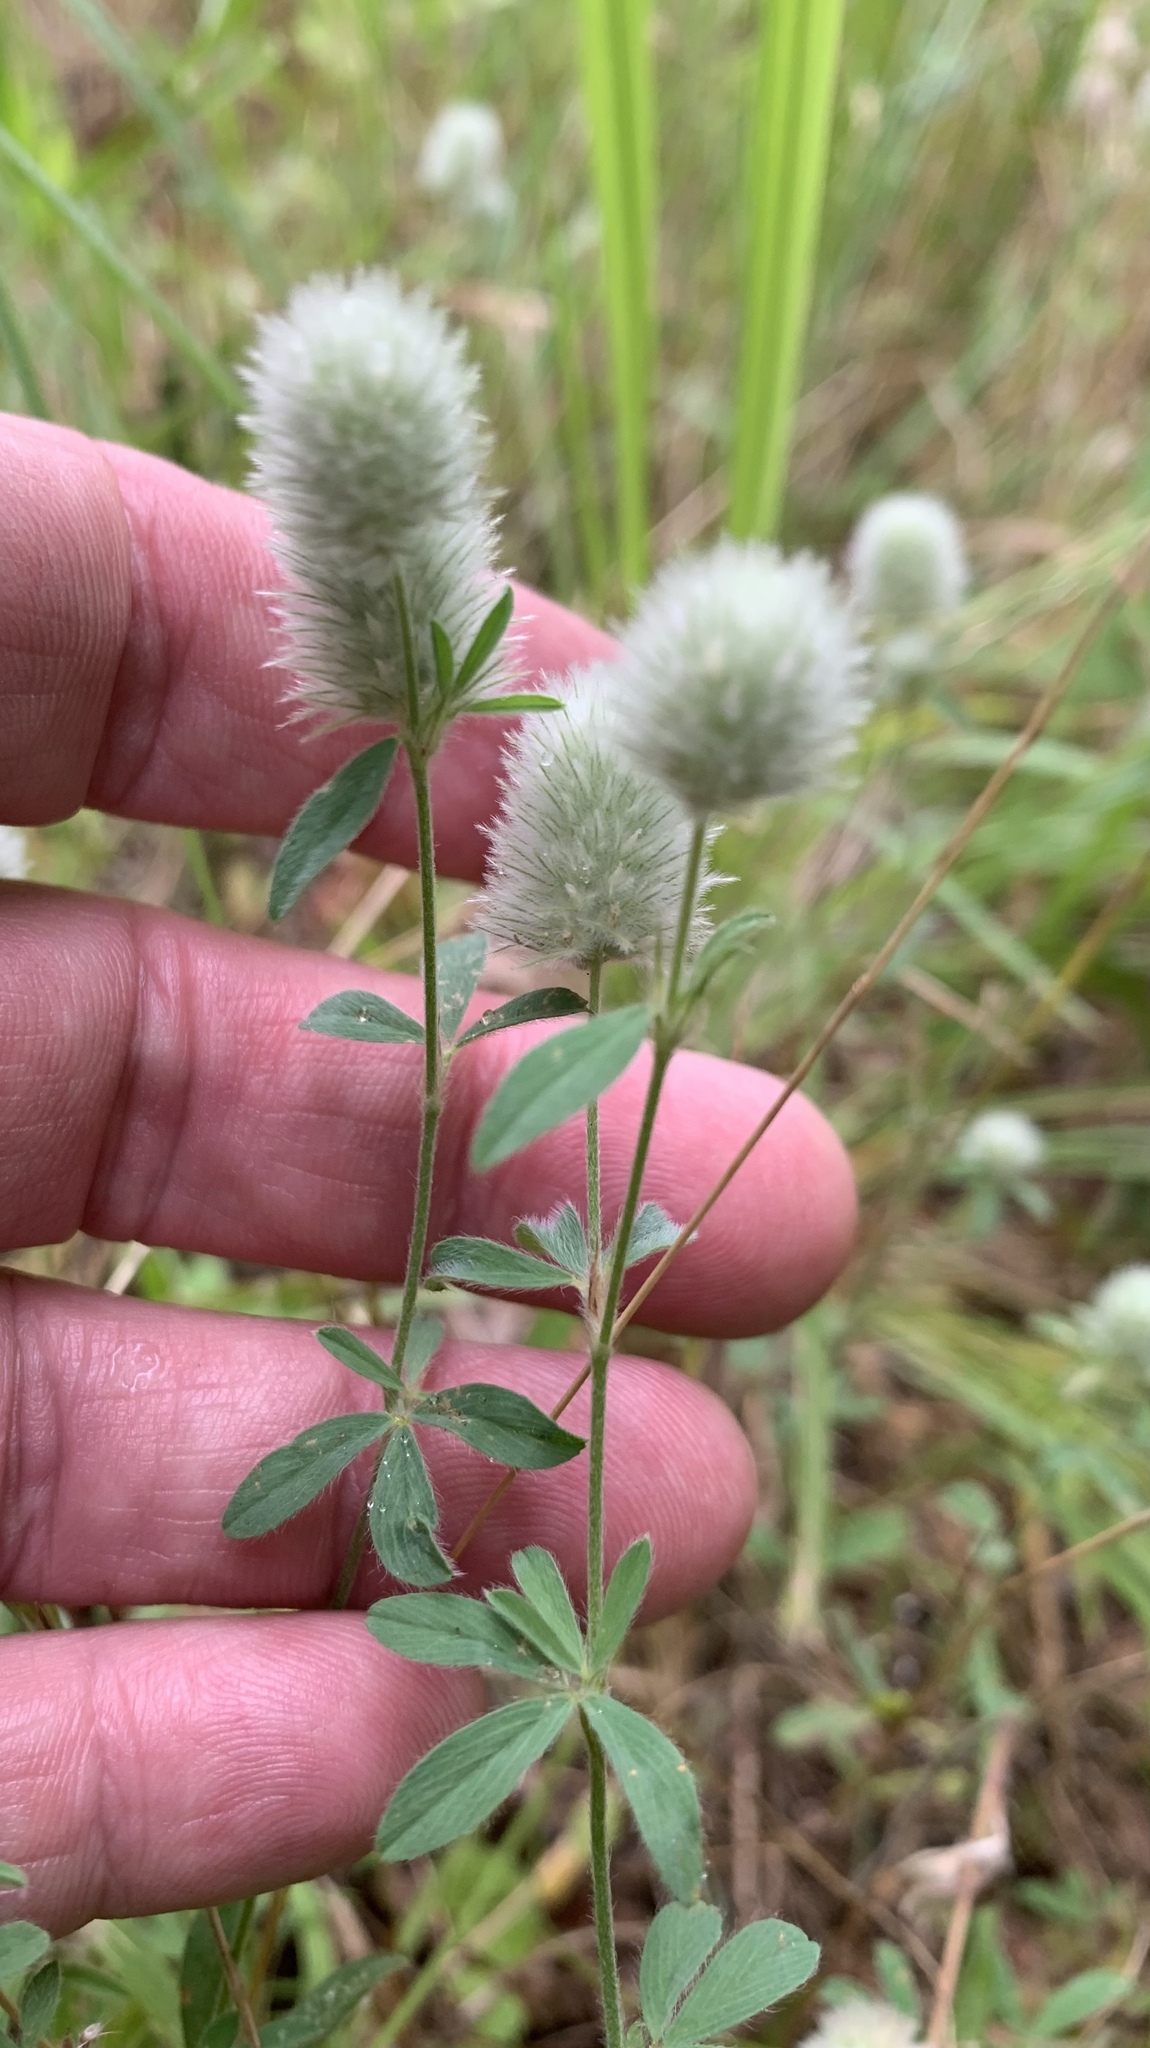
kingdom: Plantae
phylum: Tracheophyta
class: Magnoliopsida
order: Fabales
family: Fabaceae
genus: Trifolium
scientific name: Trifolium arvense
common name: Hare's-foot clover
